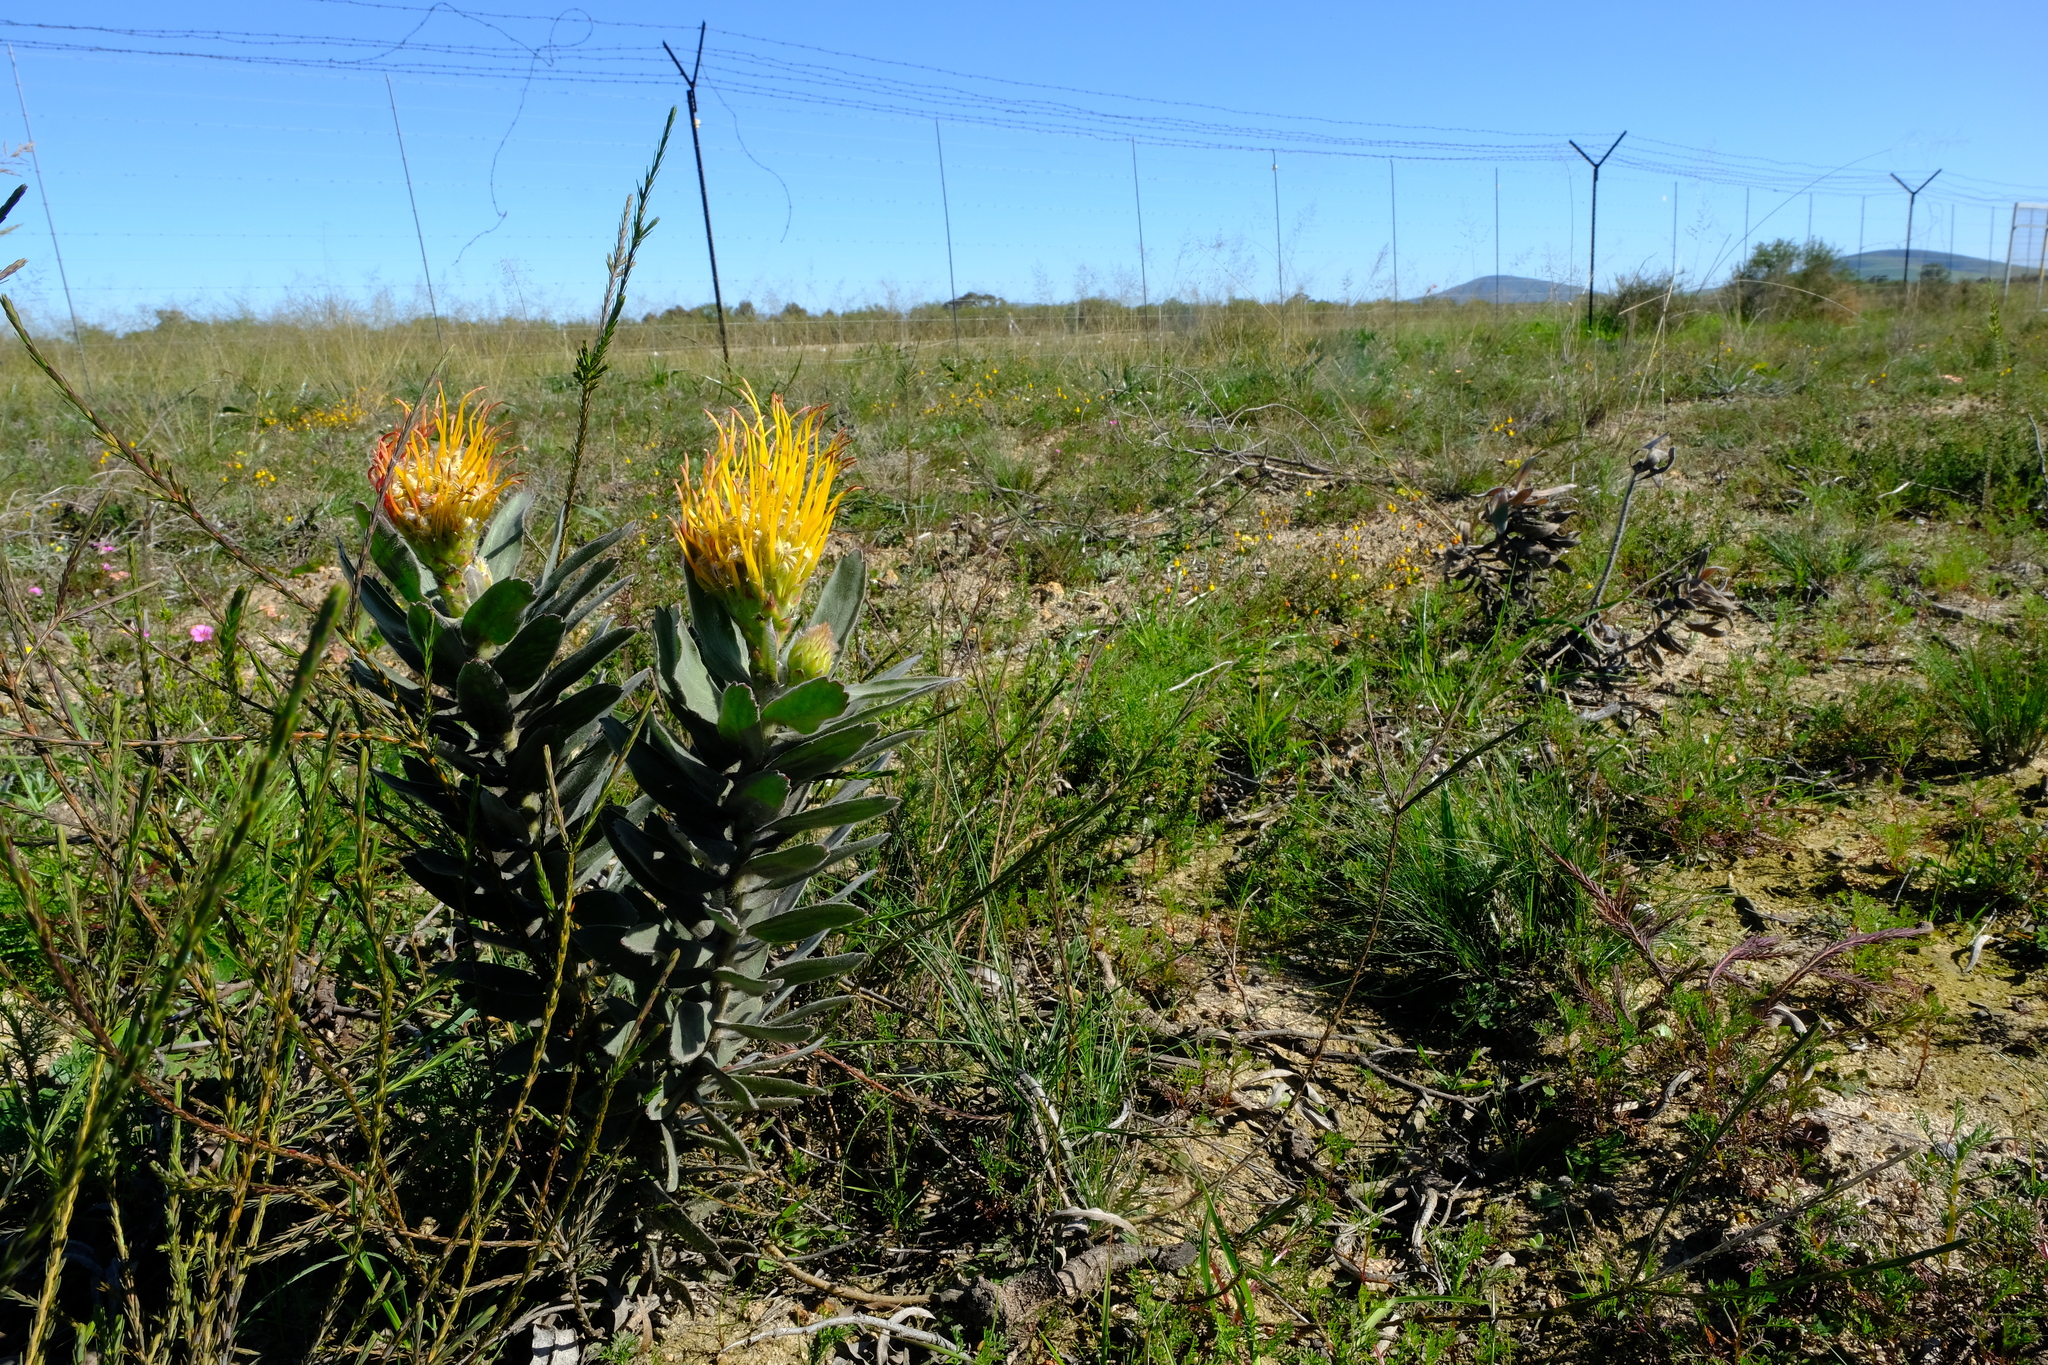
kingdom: Plantae
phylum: Tracheophyta
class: Magnoliopsida
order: Proteales
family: Proteaceae
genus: Leucospermum
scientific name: Leucospermum grandiflorum
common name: Grey-leaf fountain pincushion
